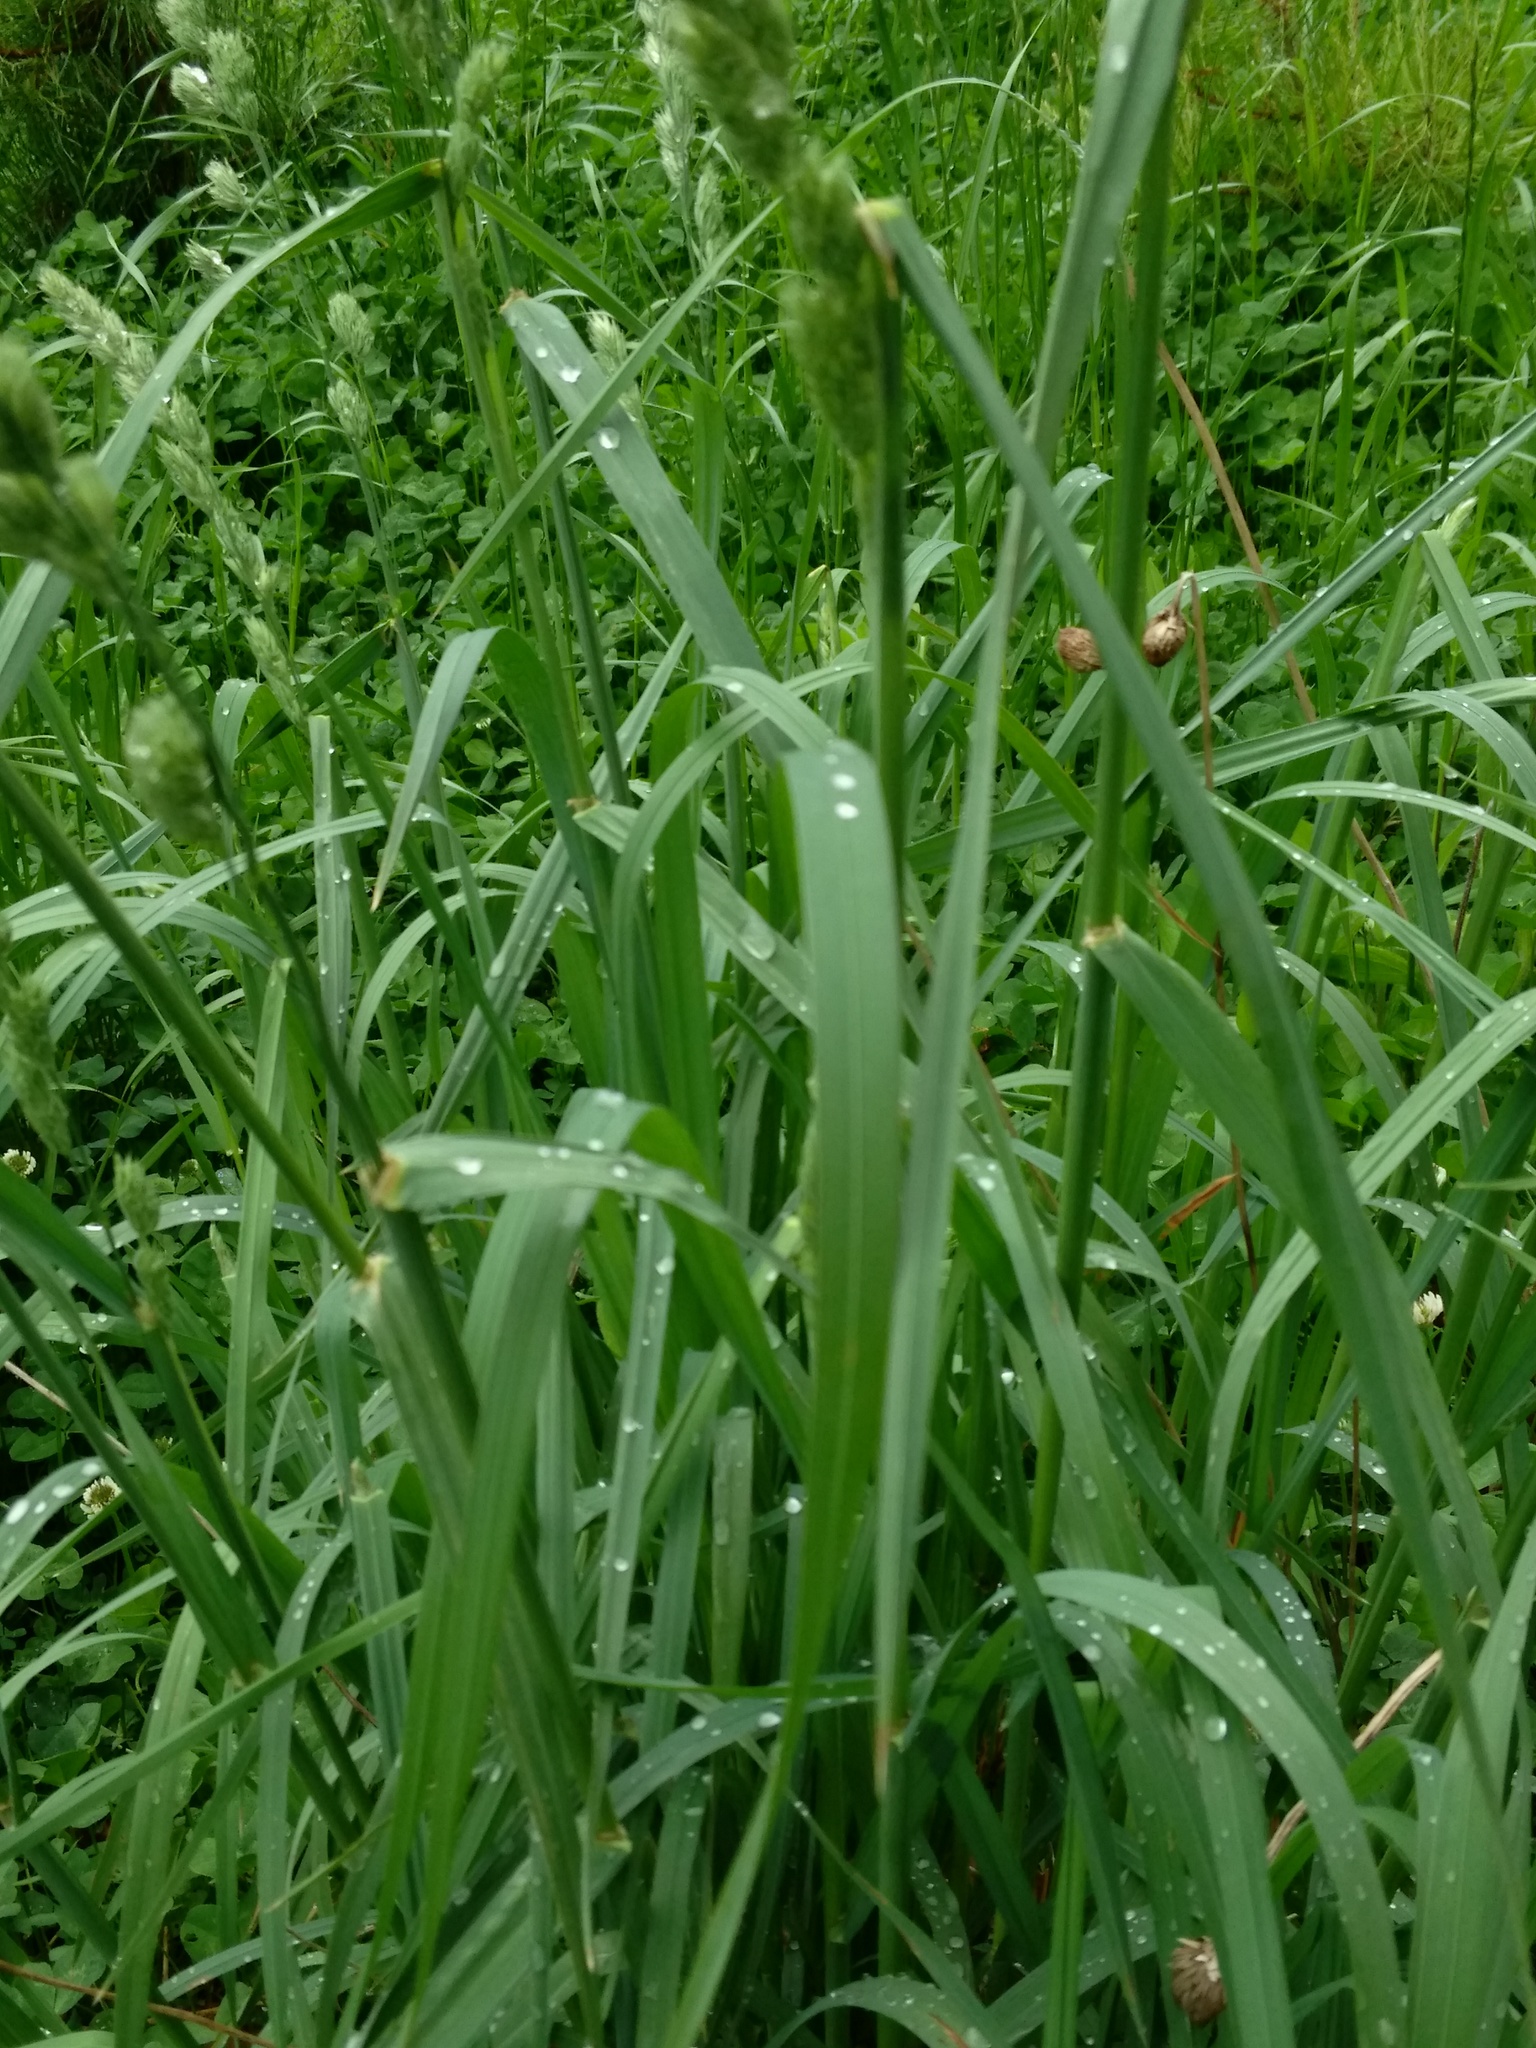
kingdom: Plantae
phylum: Tracheophyta
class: Liliopsida
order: Poales
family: Poaceae
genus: Dactylis
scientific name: Dactylis glomerata
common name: Orchardgrass
